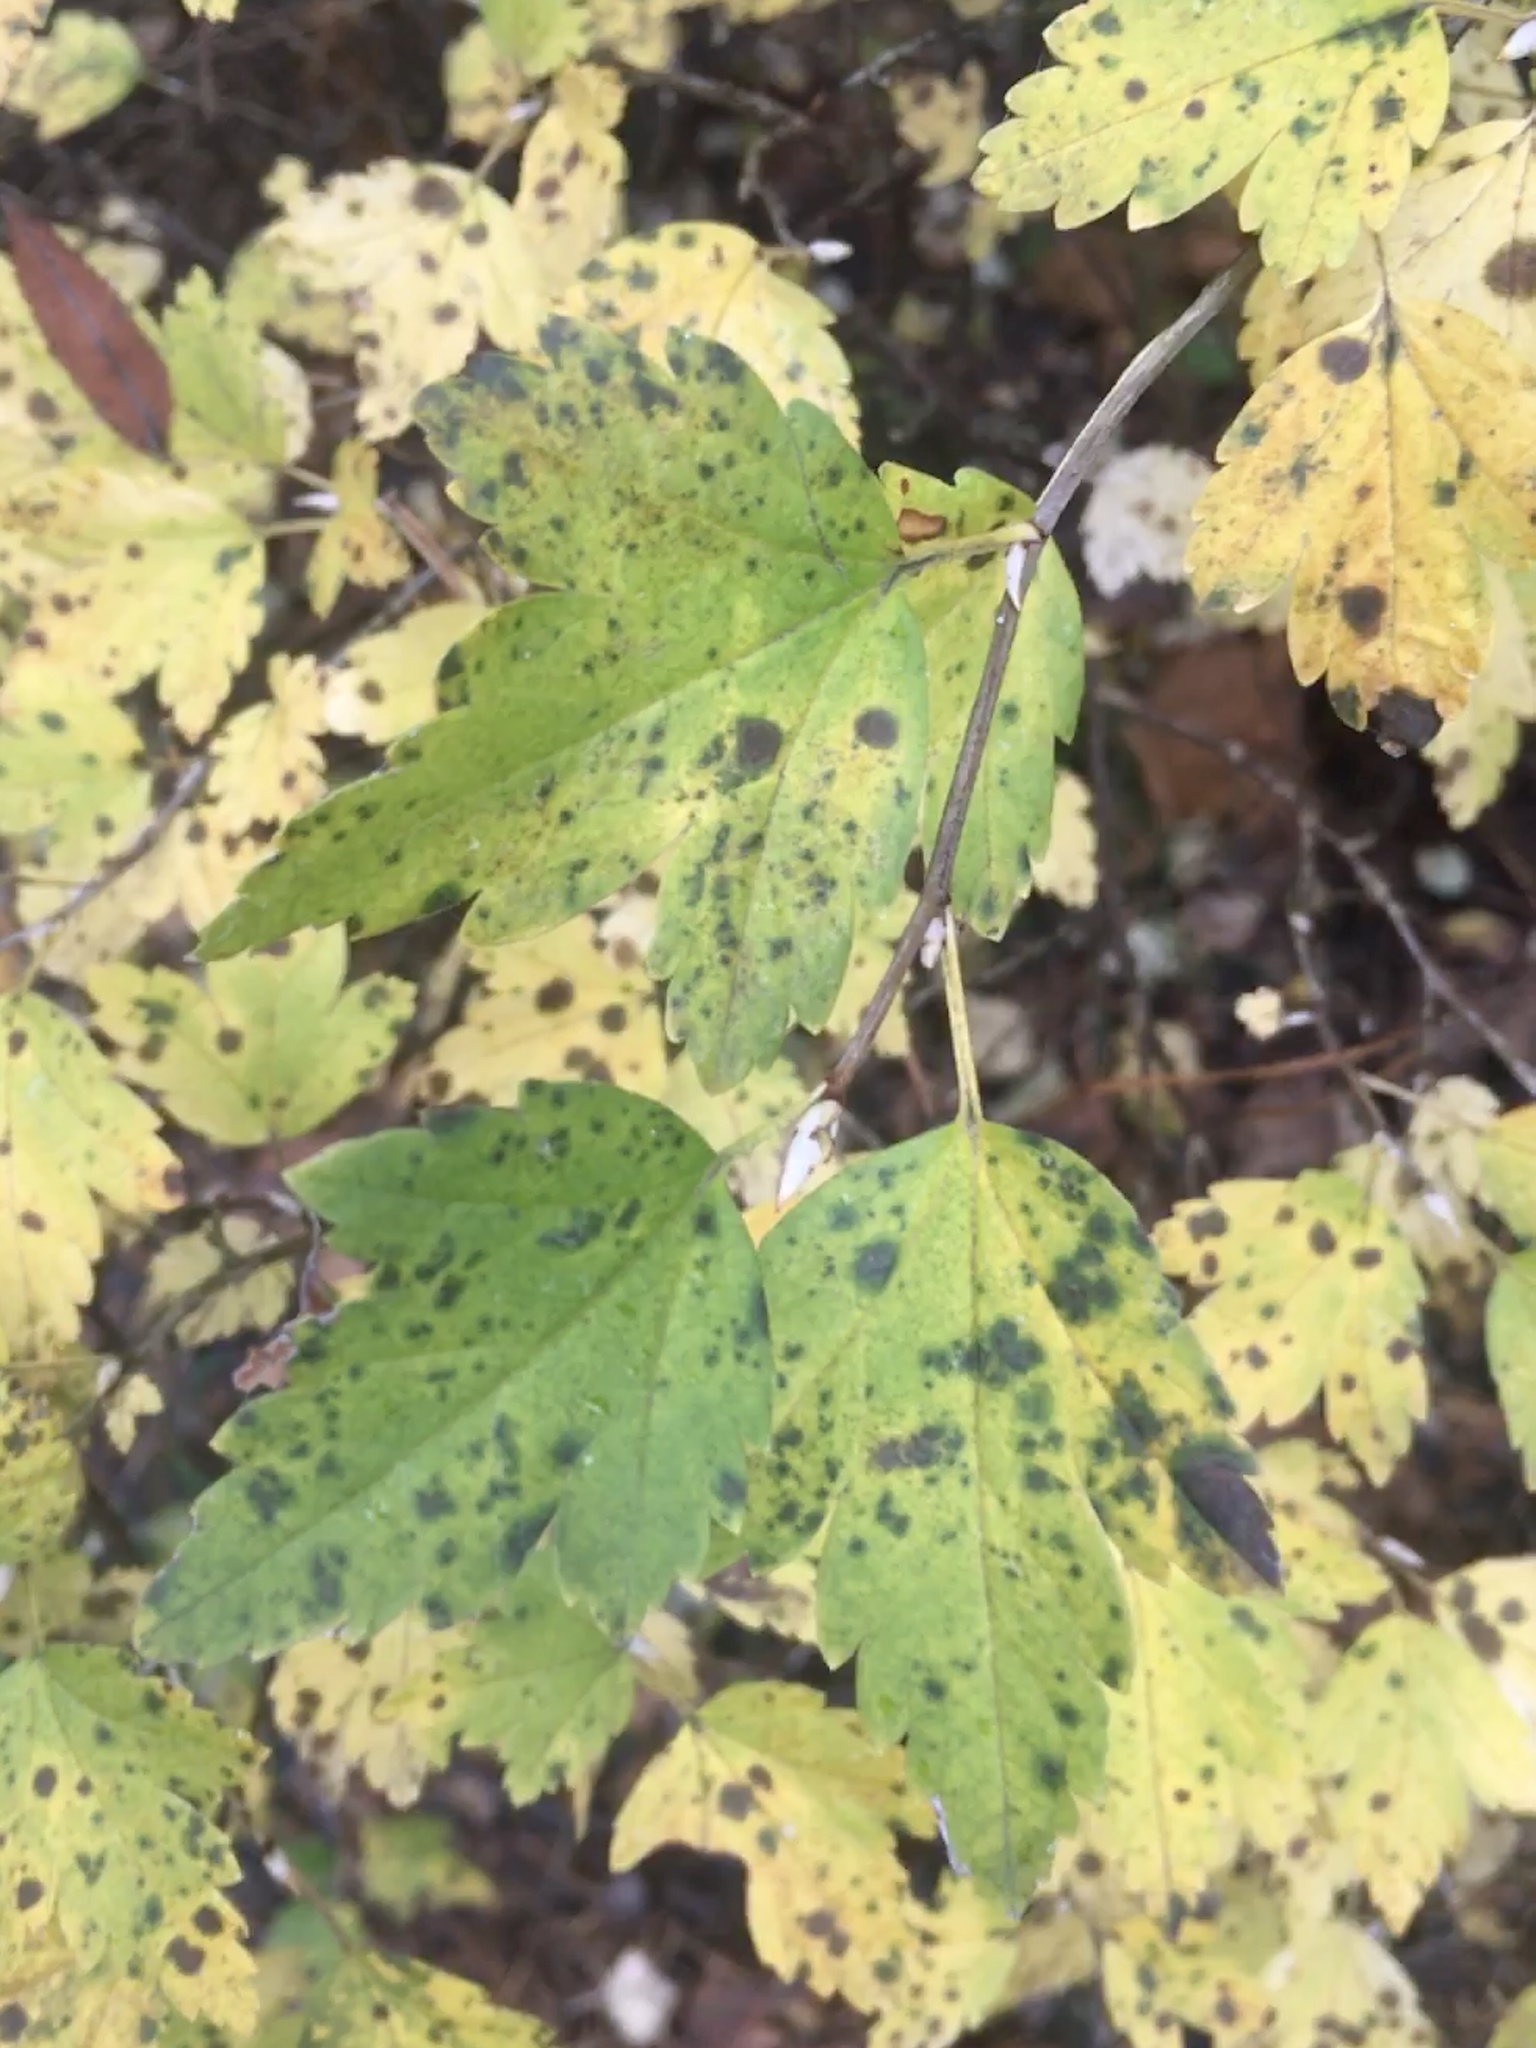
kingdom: Plantae
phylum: Tracheophyta
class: Magnoliopsida
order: Saxifragales
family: Grossulariaceae
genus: Ribes
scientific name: Ribes alpinum
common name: Alpine currant
